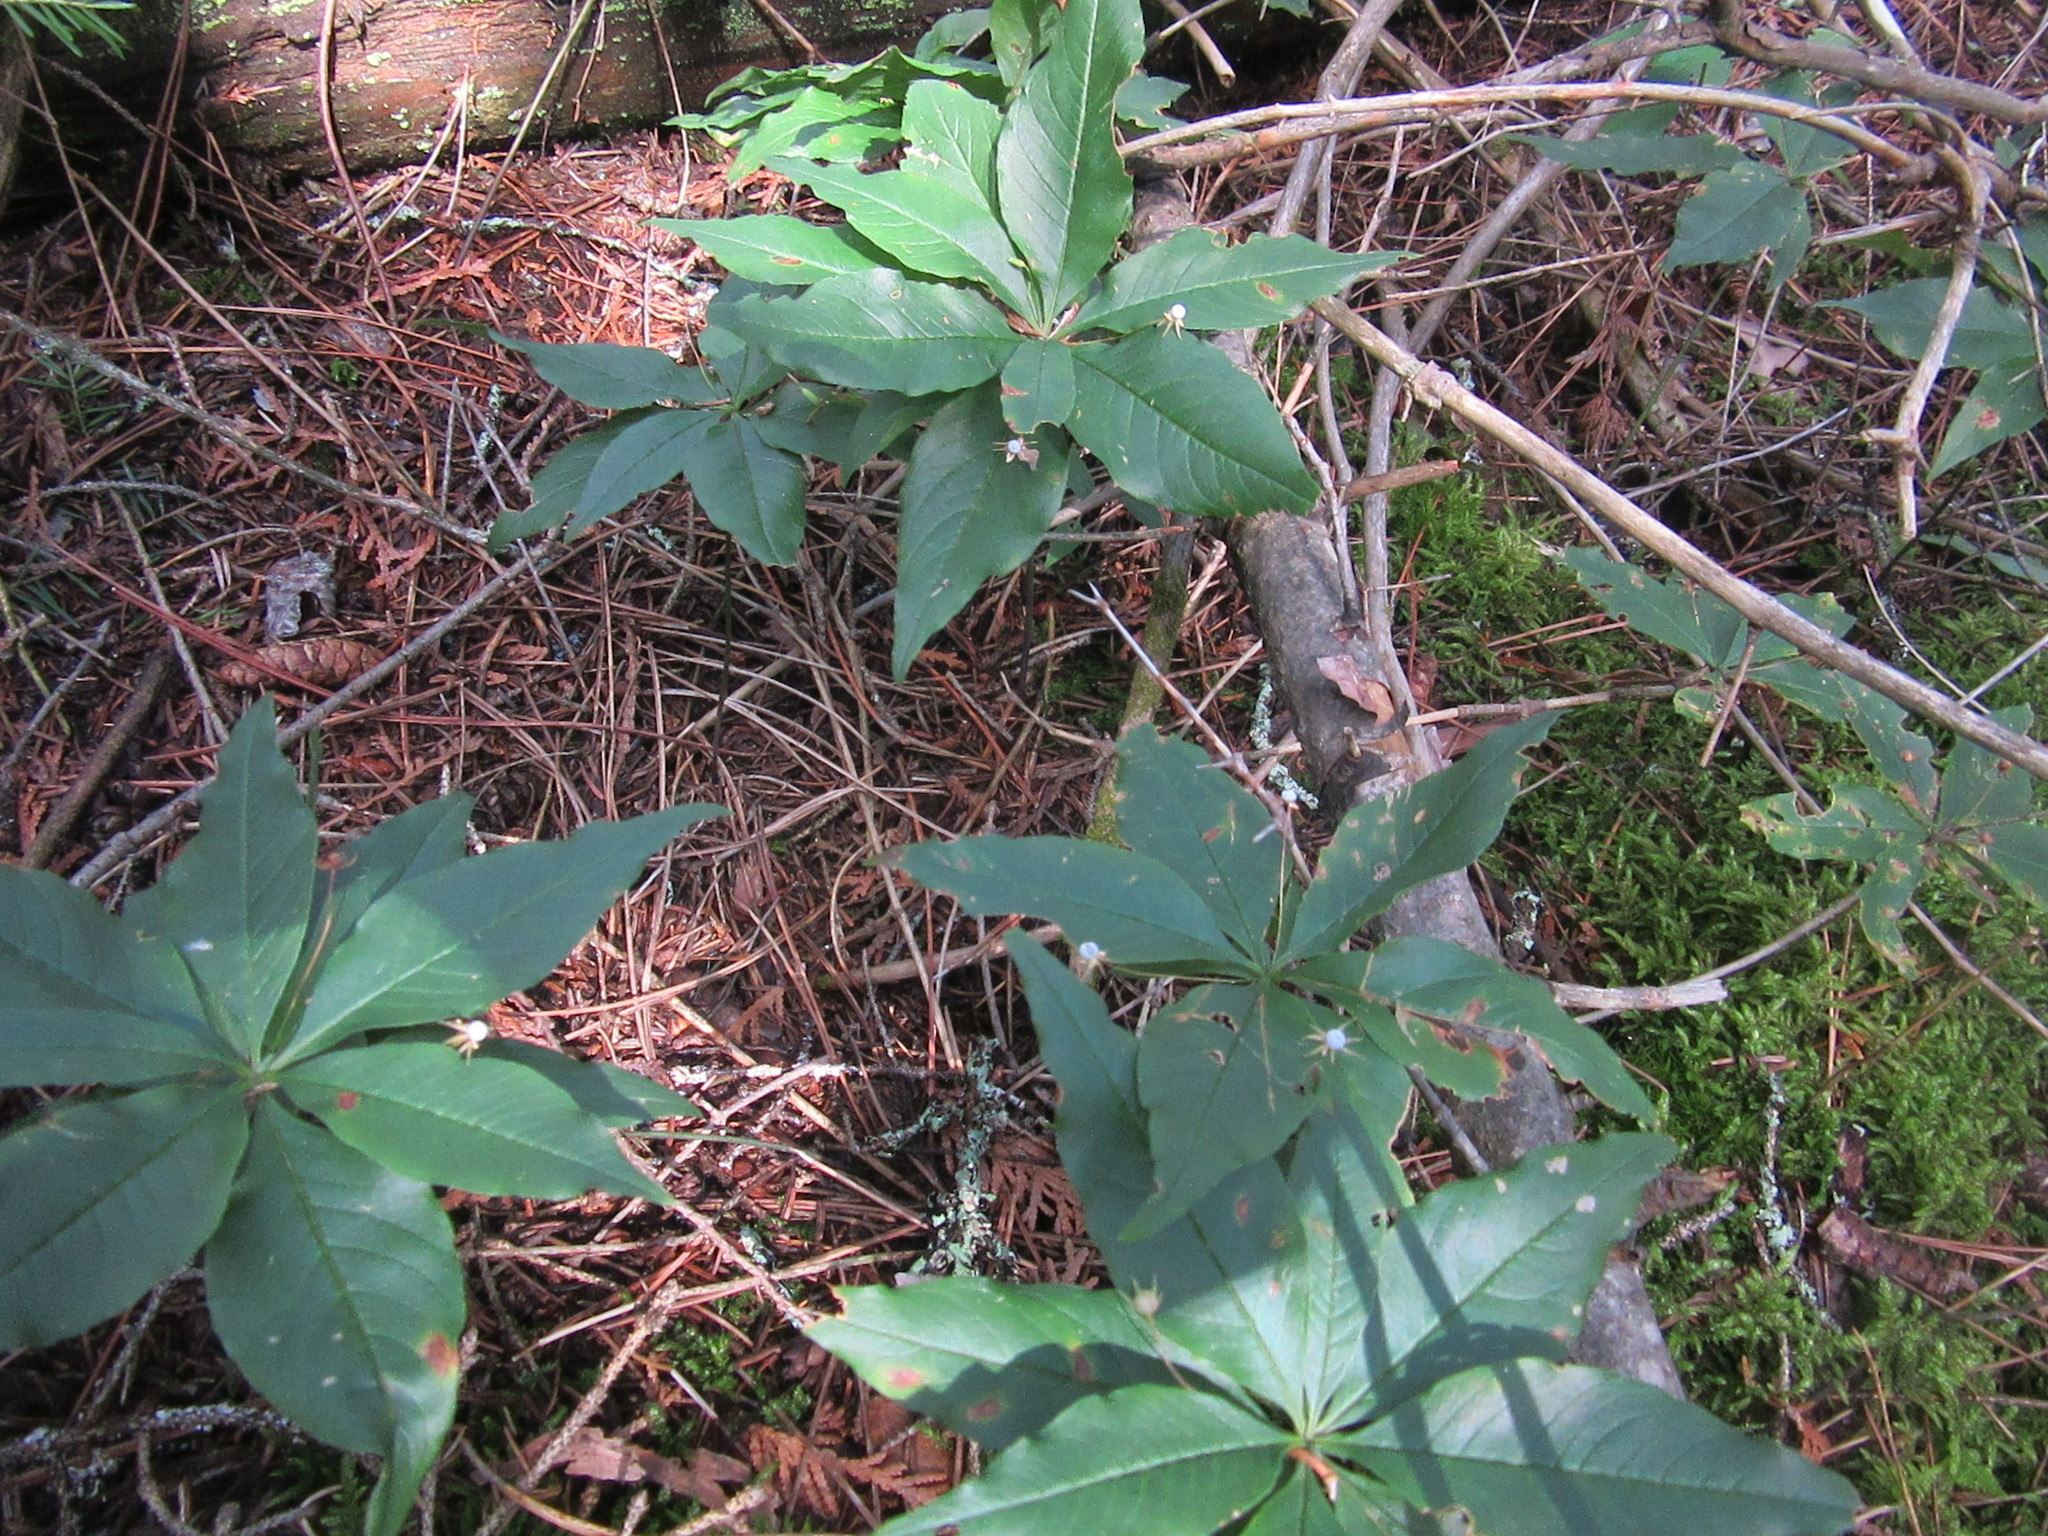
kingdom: Plantae
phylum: Tracheophyta
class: Magnoliopsida
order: Ericales
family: Primulaceae
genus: Lysimachia
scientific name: Lysimachia borealis
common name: American starflower
